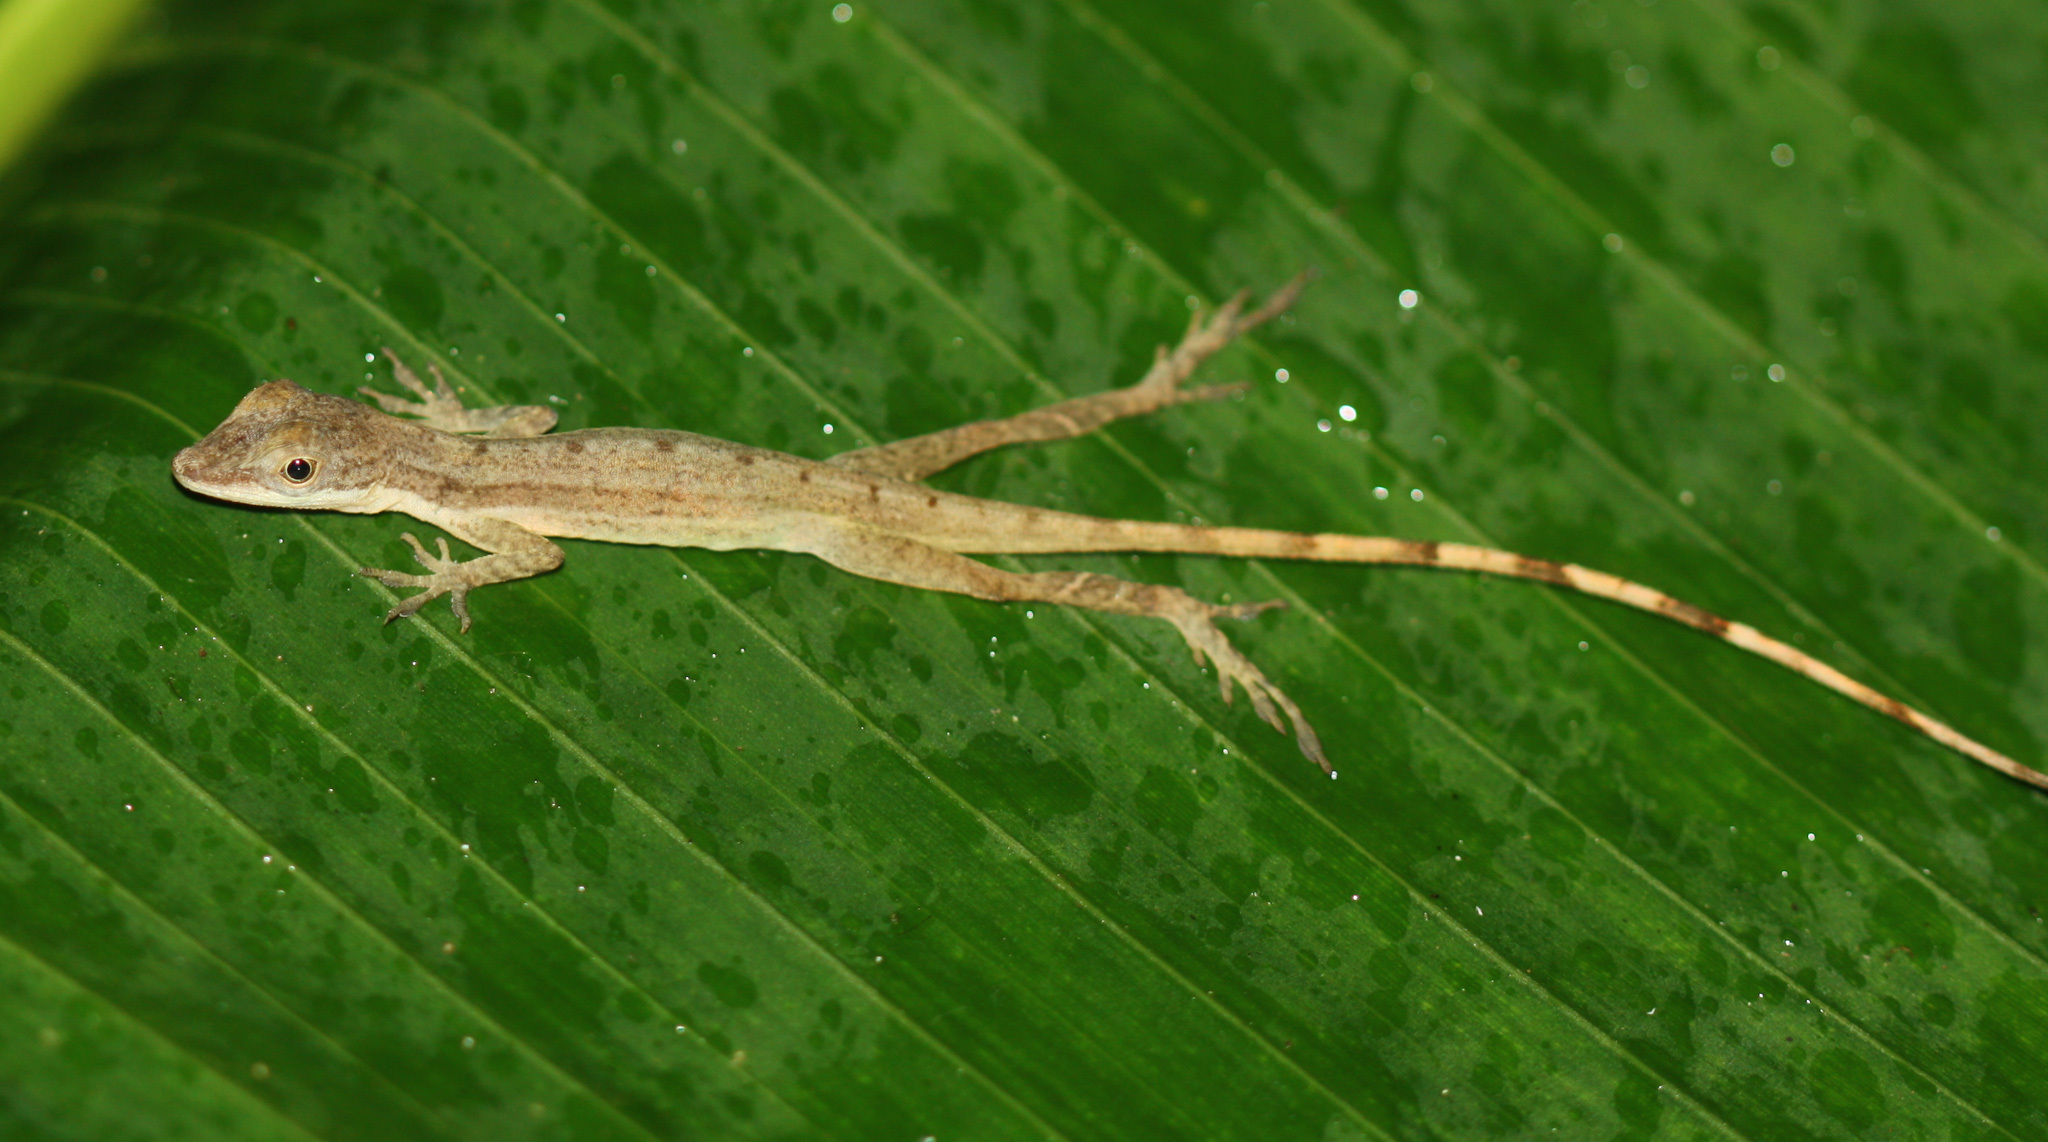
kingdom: Animalia
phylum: Chordata
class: Squamata
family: Dactyloidae
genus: Anolis
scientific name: Anolis limifrons
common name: Border anole
